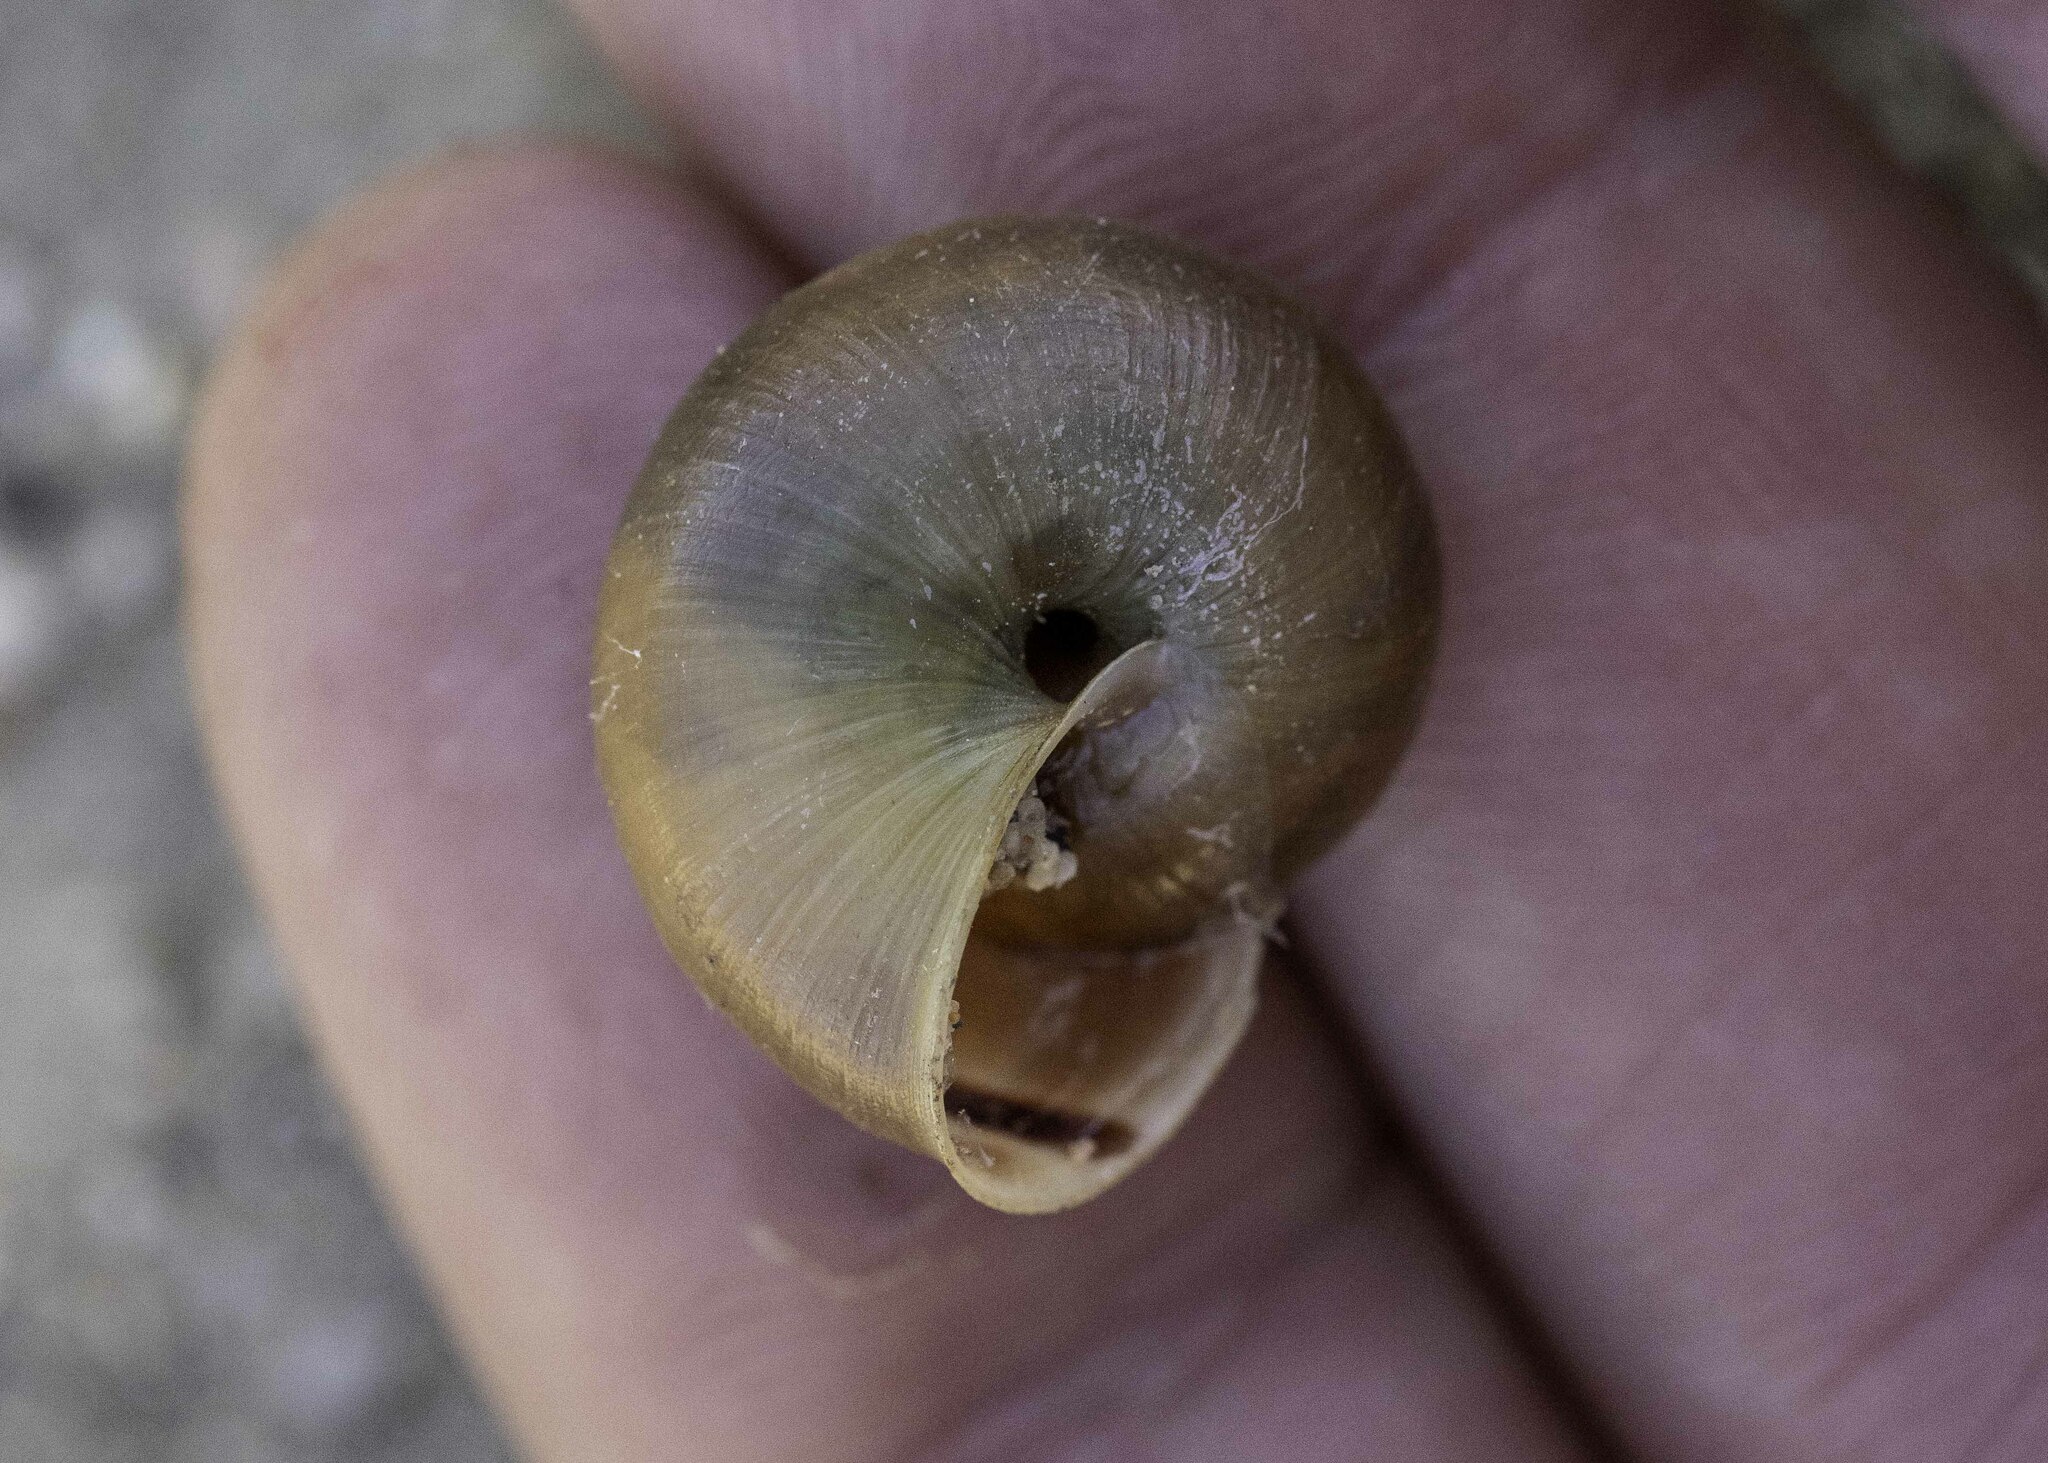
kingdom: Animalia
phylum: Mollusca
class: Gastropoda
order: Stylommatophora
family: Xanthonychidae
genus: Helminthoglypta
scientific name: Helminthoglypta traskii
